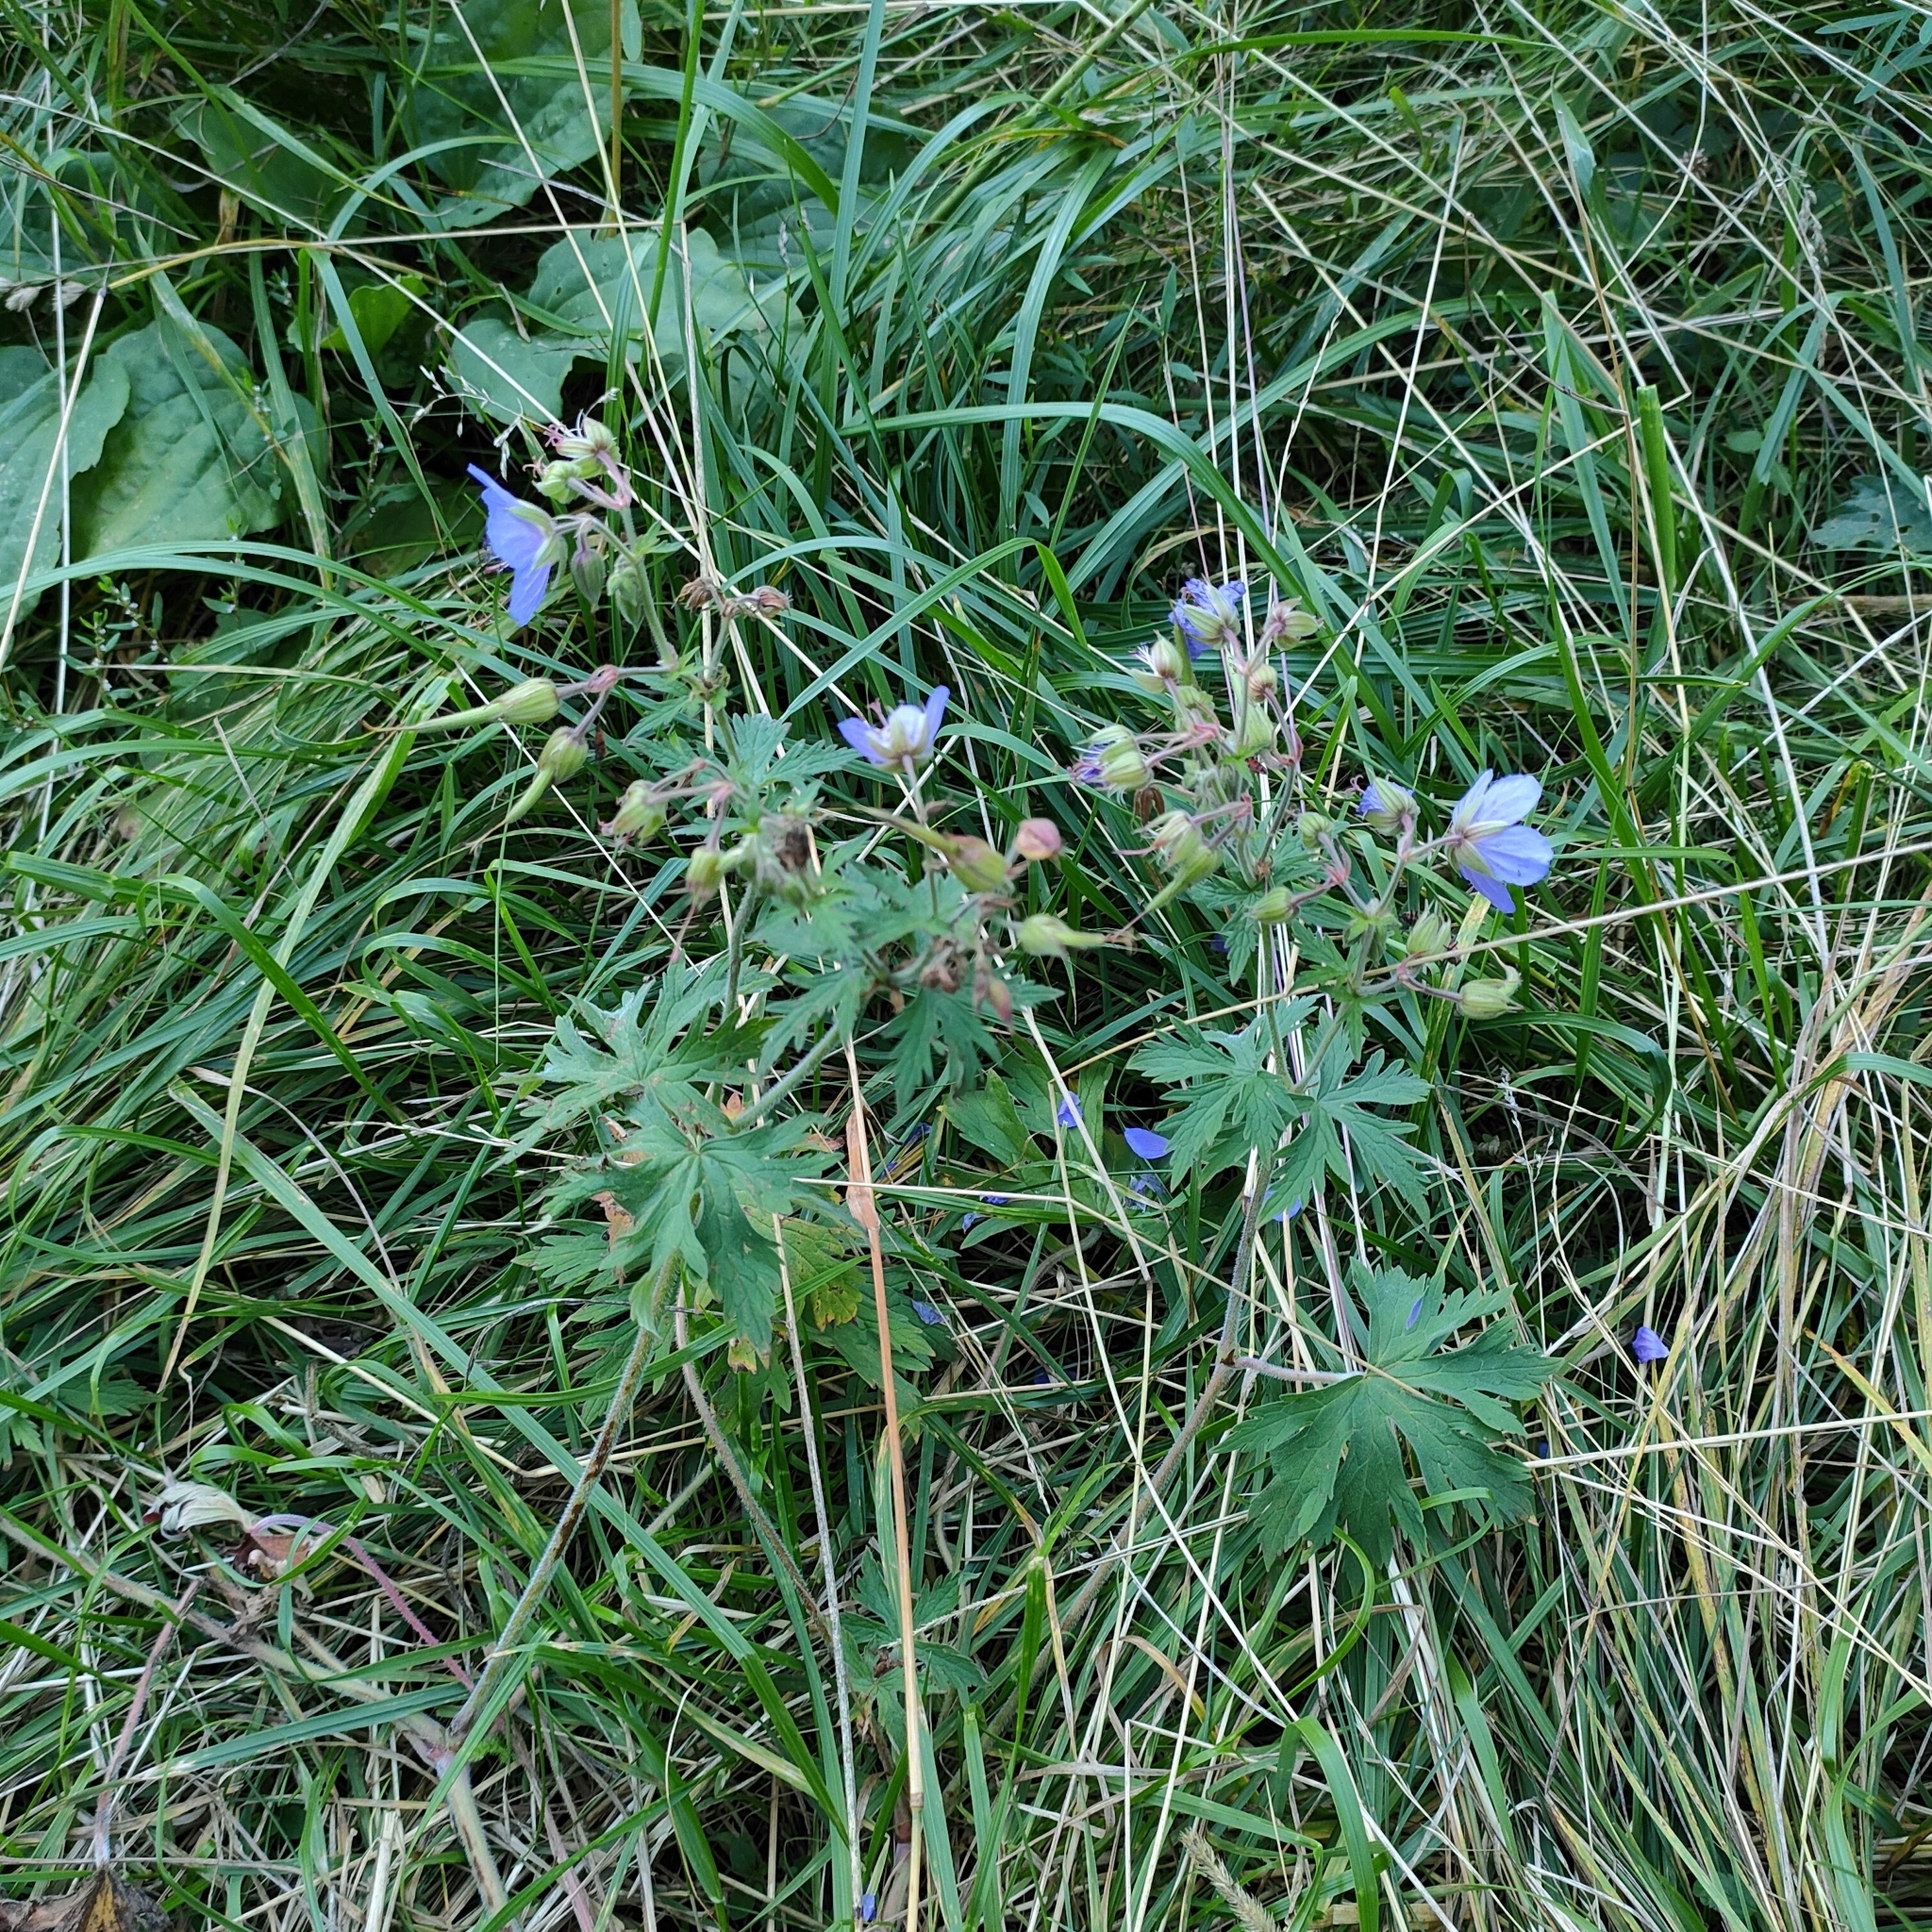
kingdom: Plantae
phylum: Tracheophyta
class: Magnoliopsida
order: Geraniales
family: Geraniaceae
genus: Geranium
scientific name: Geranium pratense
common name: Meadow crane's-bill
